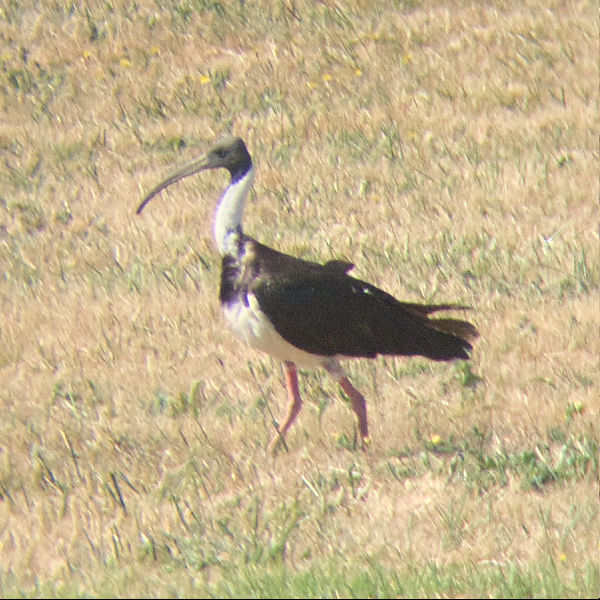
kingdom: Animalia
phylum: Chordata
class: Aves
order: Pelecaniformes
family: Threskiornithidae
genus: Threskiornis
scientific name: Threskiornis spinicollis
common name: Straw-necked ibis
